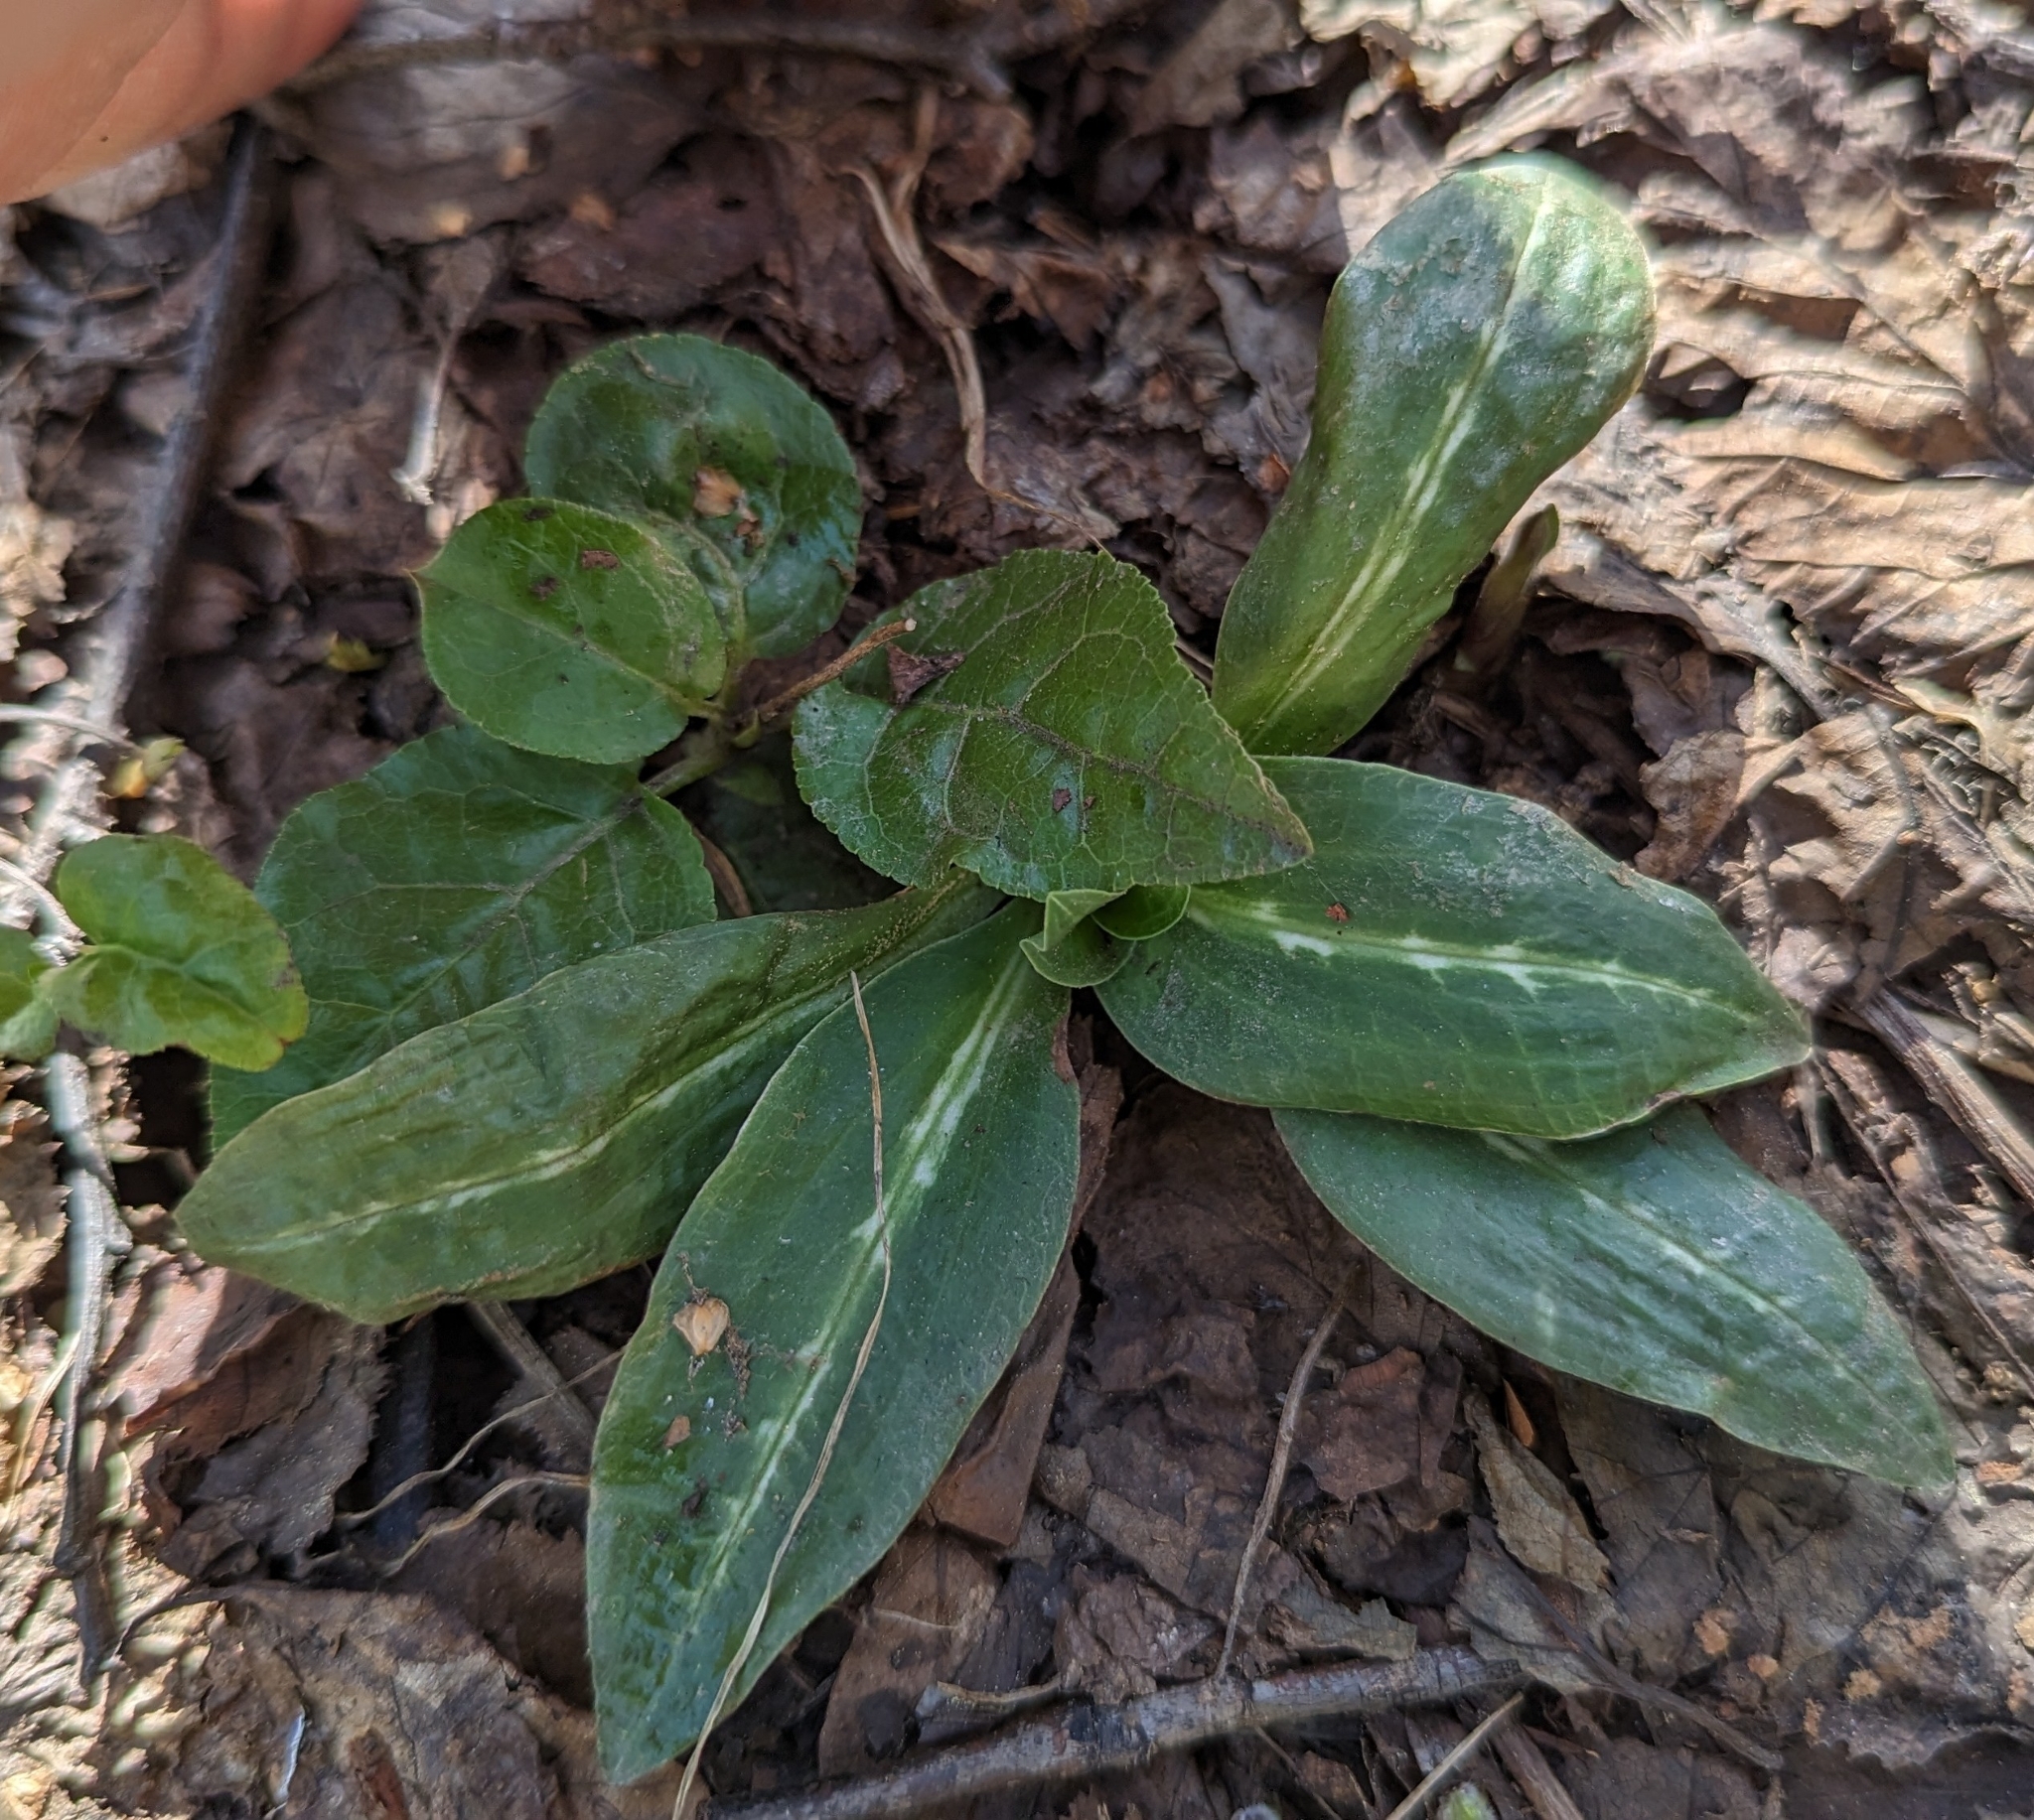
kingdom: Plantae
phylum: Tracheophyta
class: Liliopsida
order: Asparagales
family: Orchidaceae
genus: Goodyera
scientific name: Goodyera oblongifolia
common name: Giant rattlesnake-plantain
